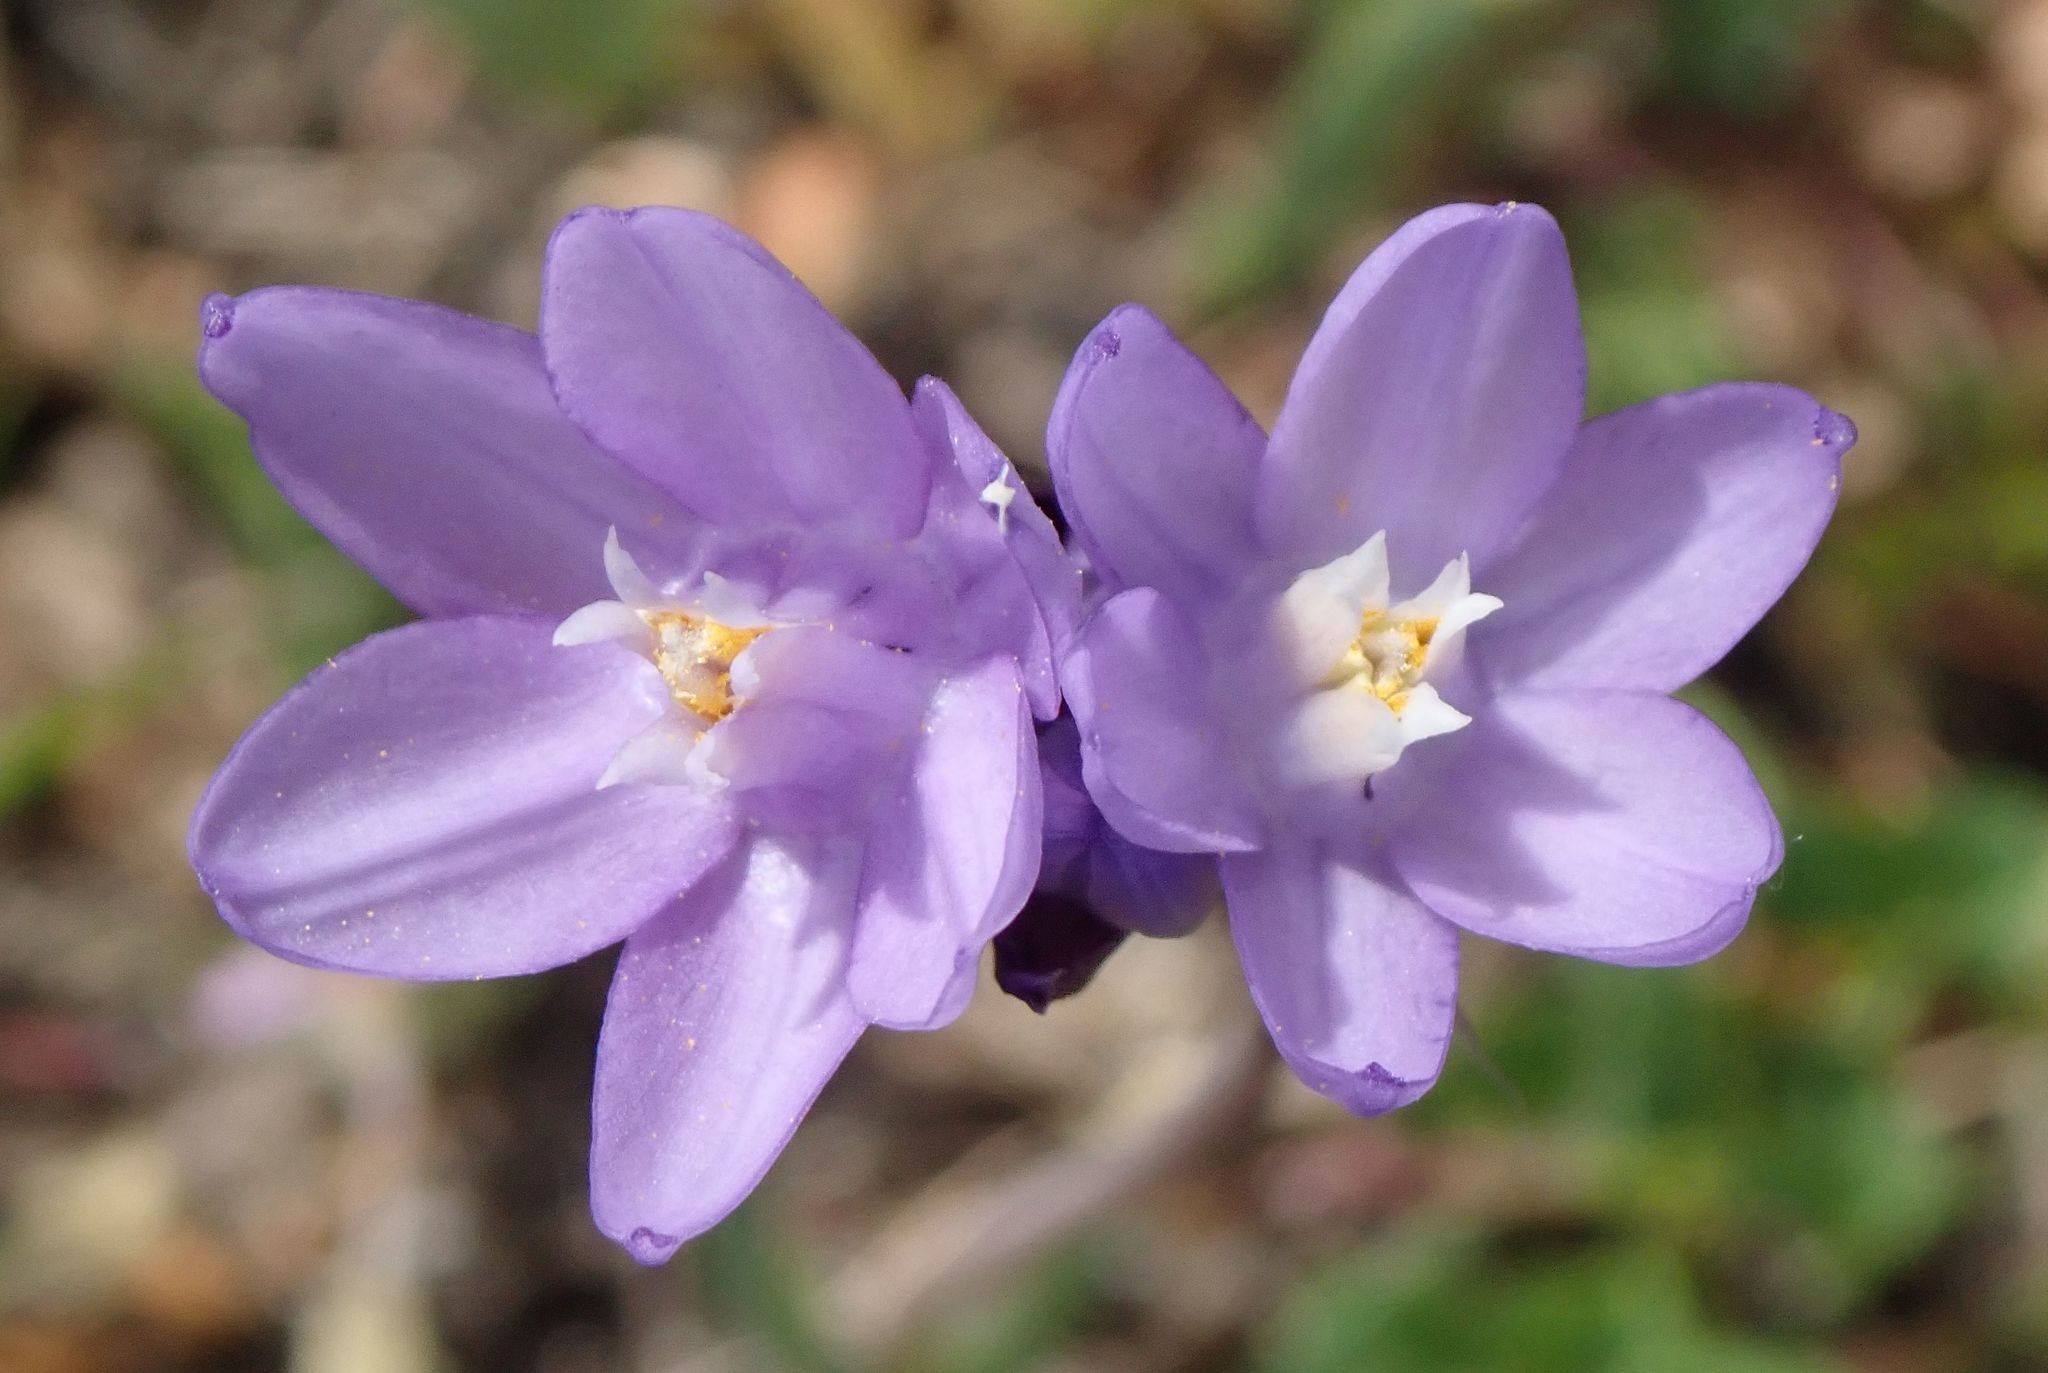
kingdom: Plantae
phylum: Tracheophyta
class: Liliopsida
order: Asparagales
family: Asparagaceae
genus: Dipterostemon
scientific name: Dipterostemon capitatus
